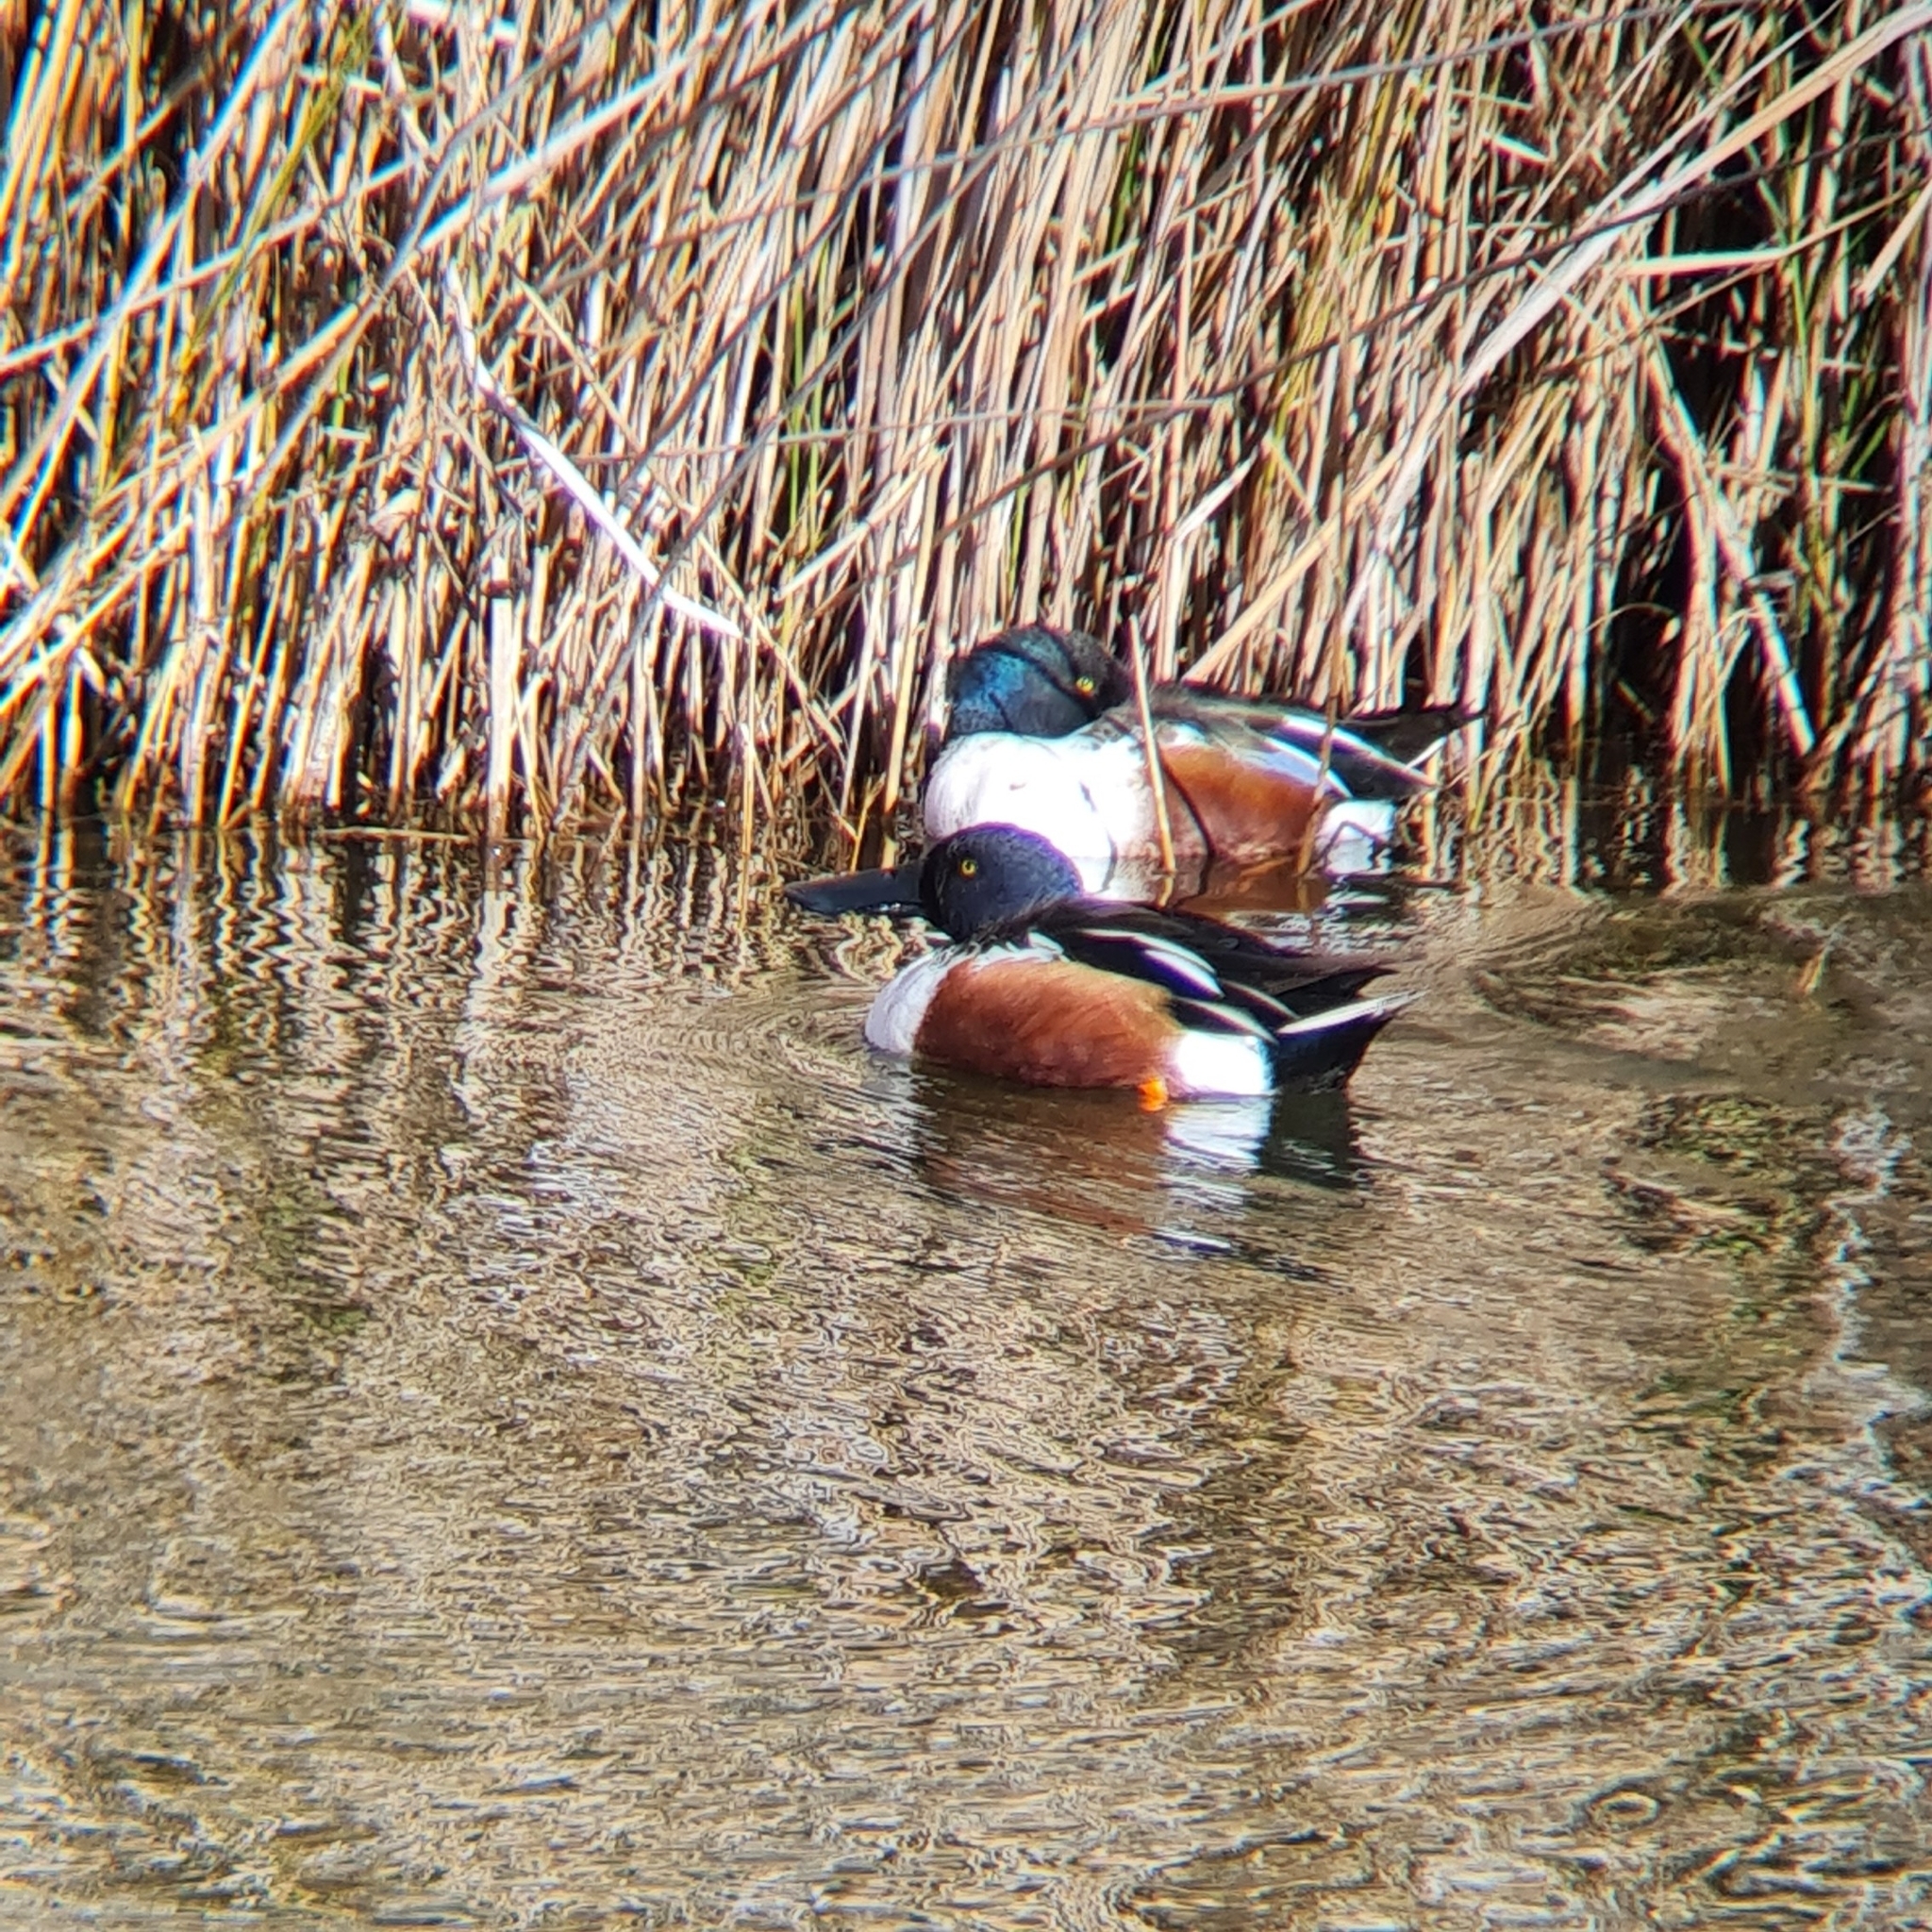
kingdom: Animalia
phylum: Chordata
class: Aves
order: Anseriformes
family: Anatidae
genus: Spatula
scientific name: Spatula clypeata
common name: Northern shoveler
